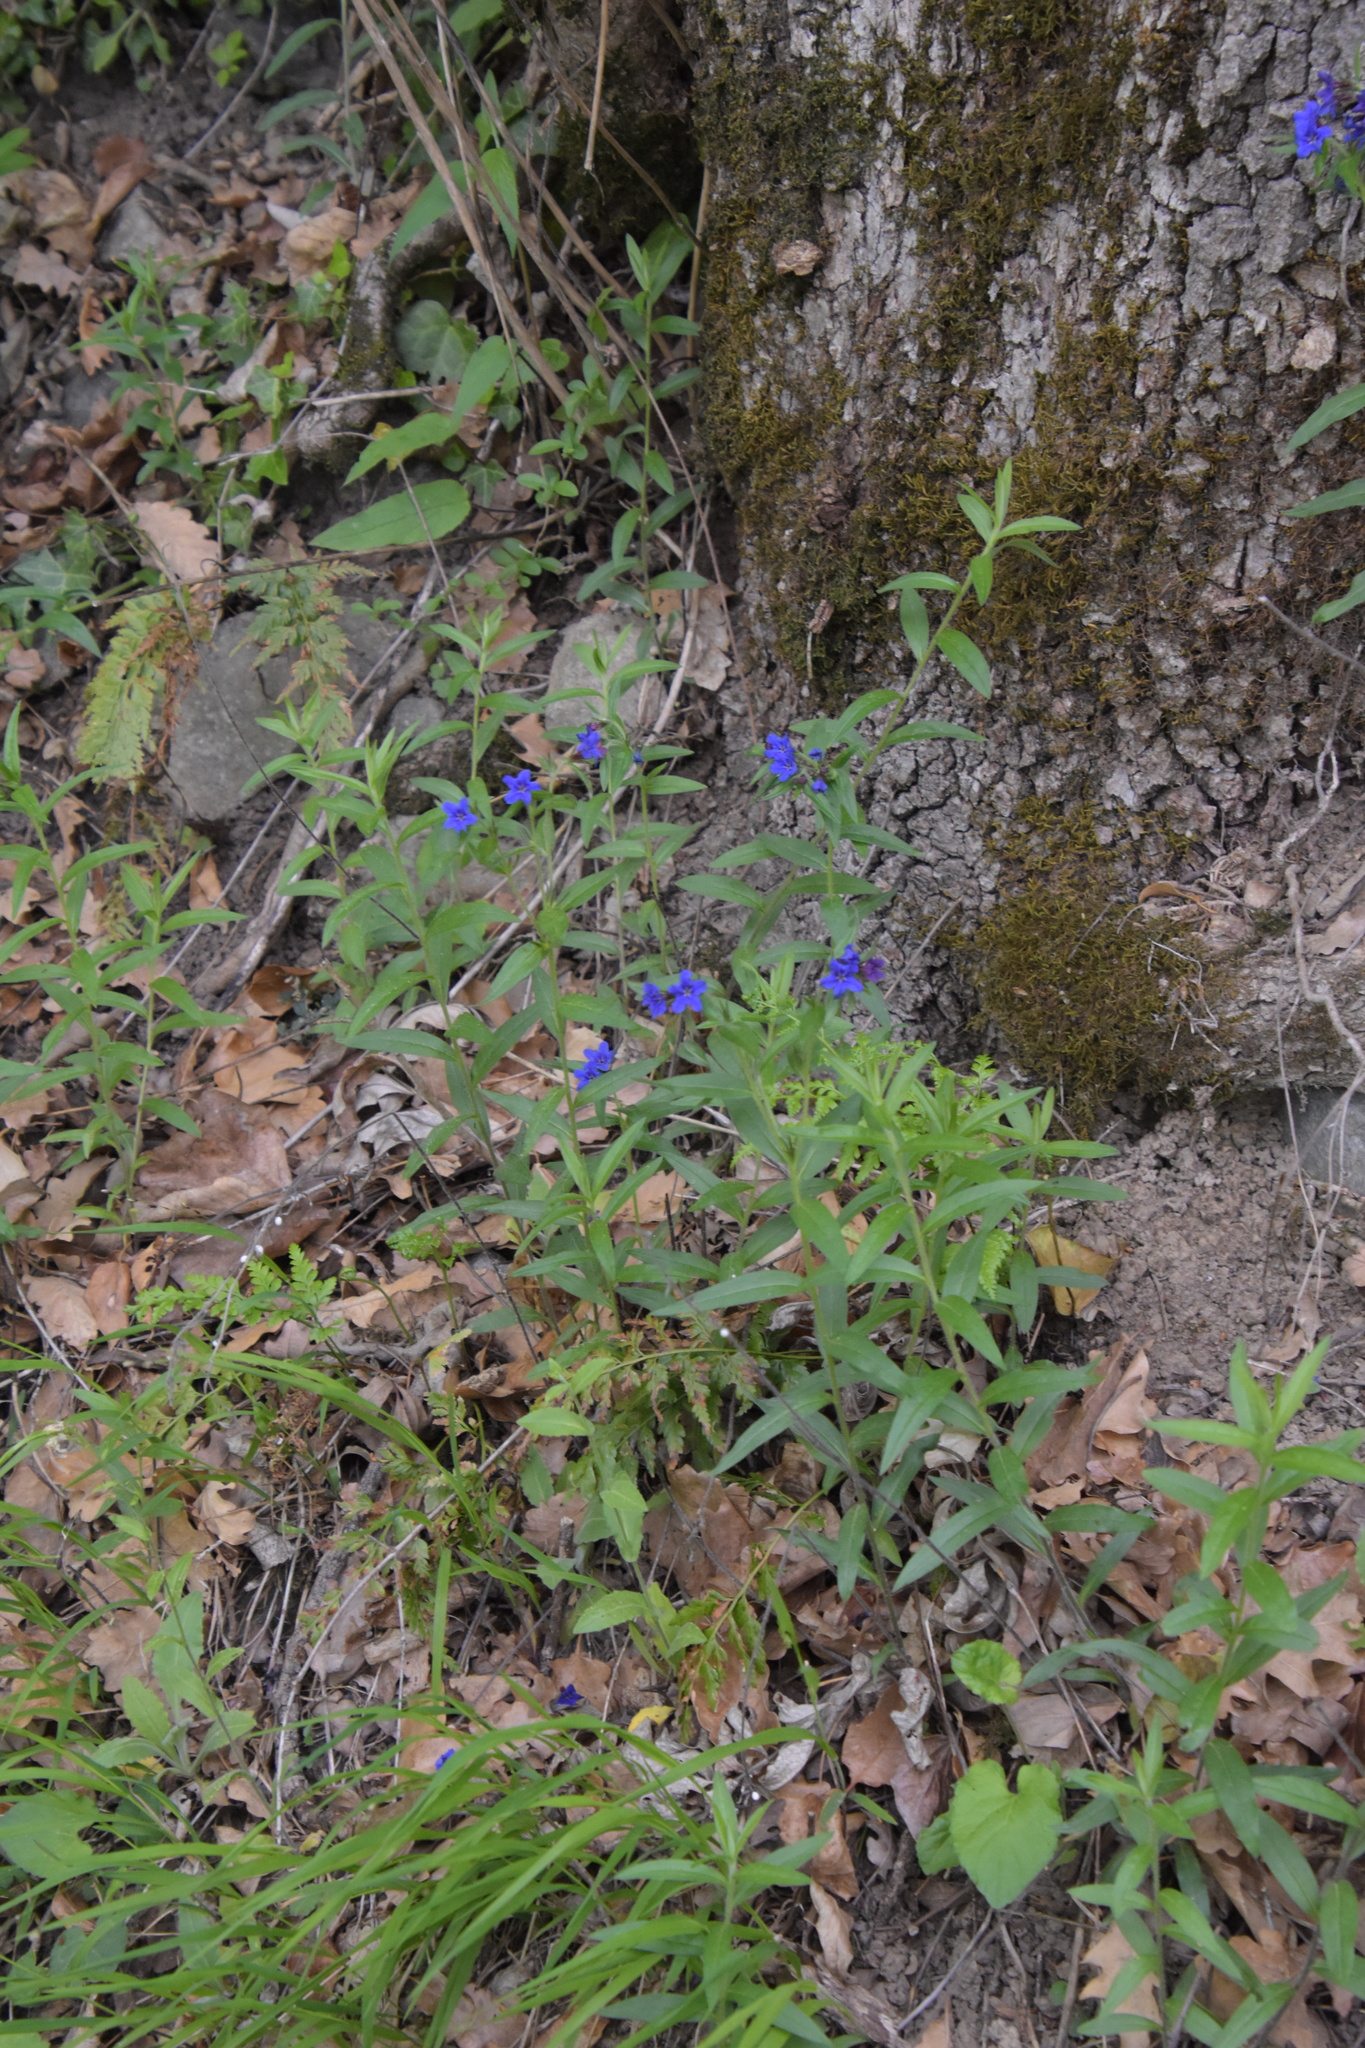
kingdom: Plantae
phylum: Tracheophyta
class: Magnoliopsida
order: Boraginales
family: Boraginaceae
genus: Aegonychon
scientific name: Aegonychon purpurocaeruleum
